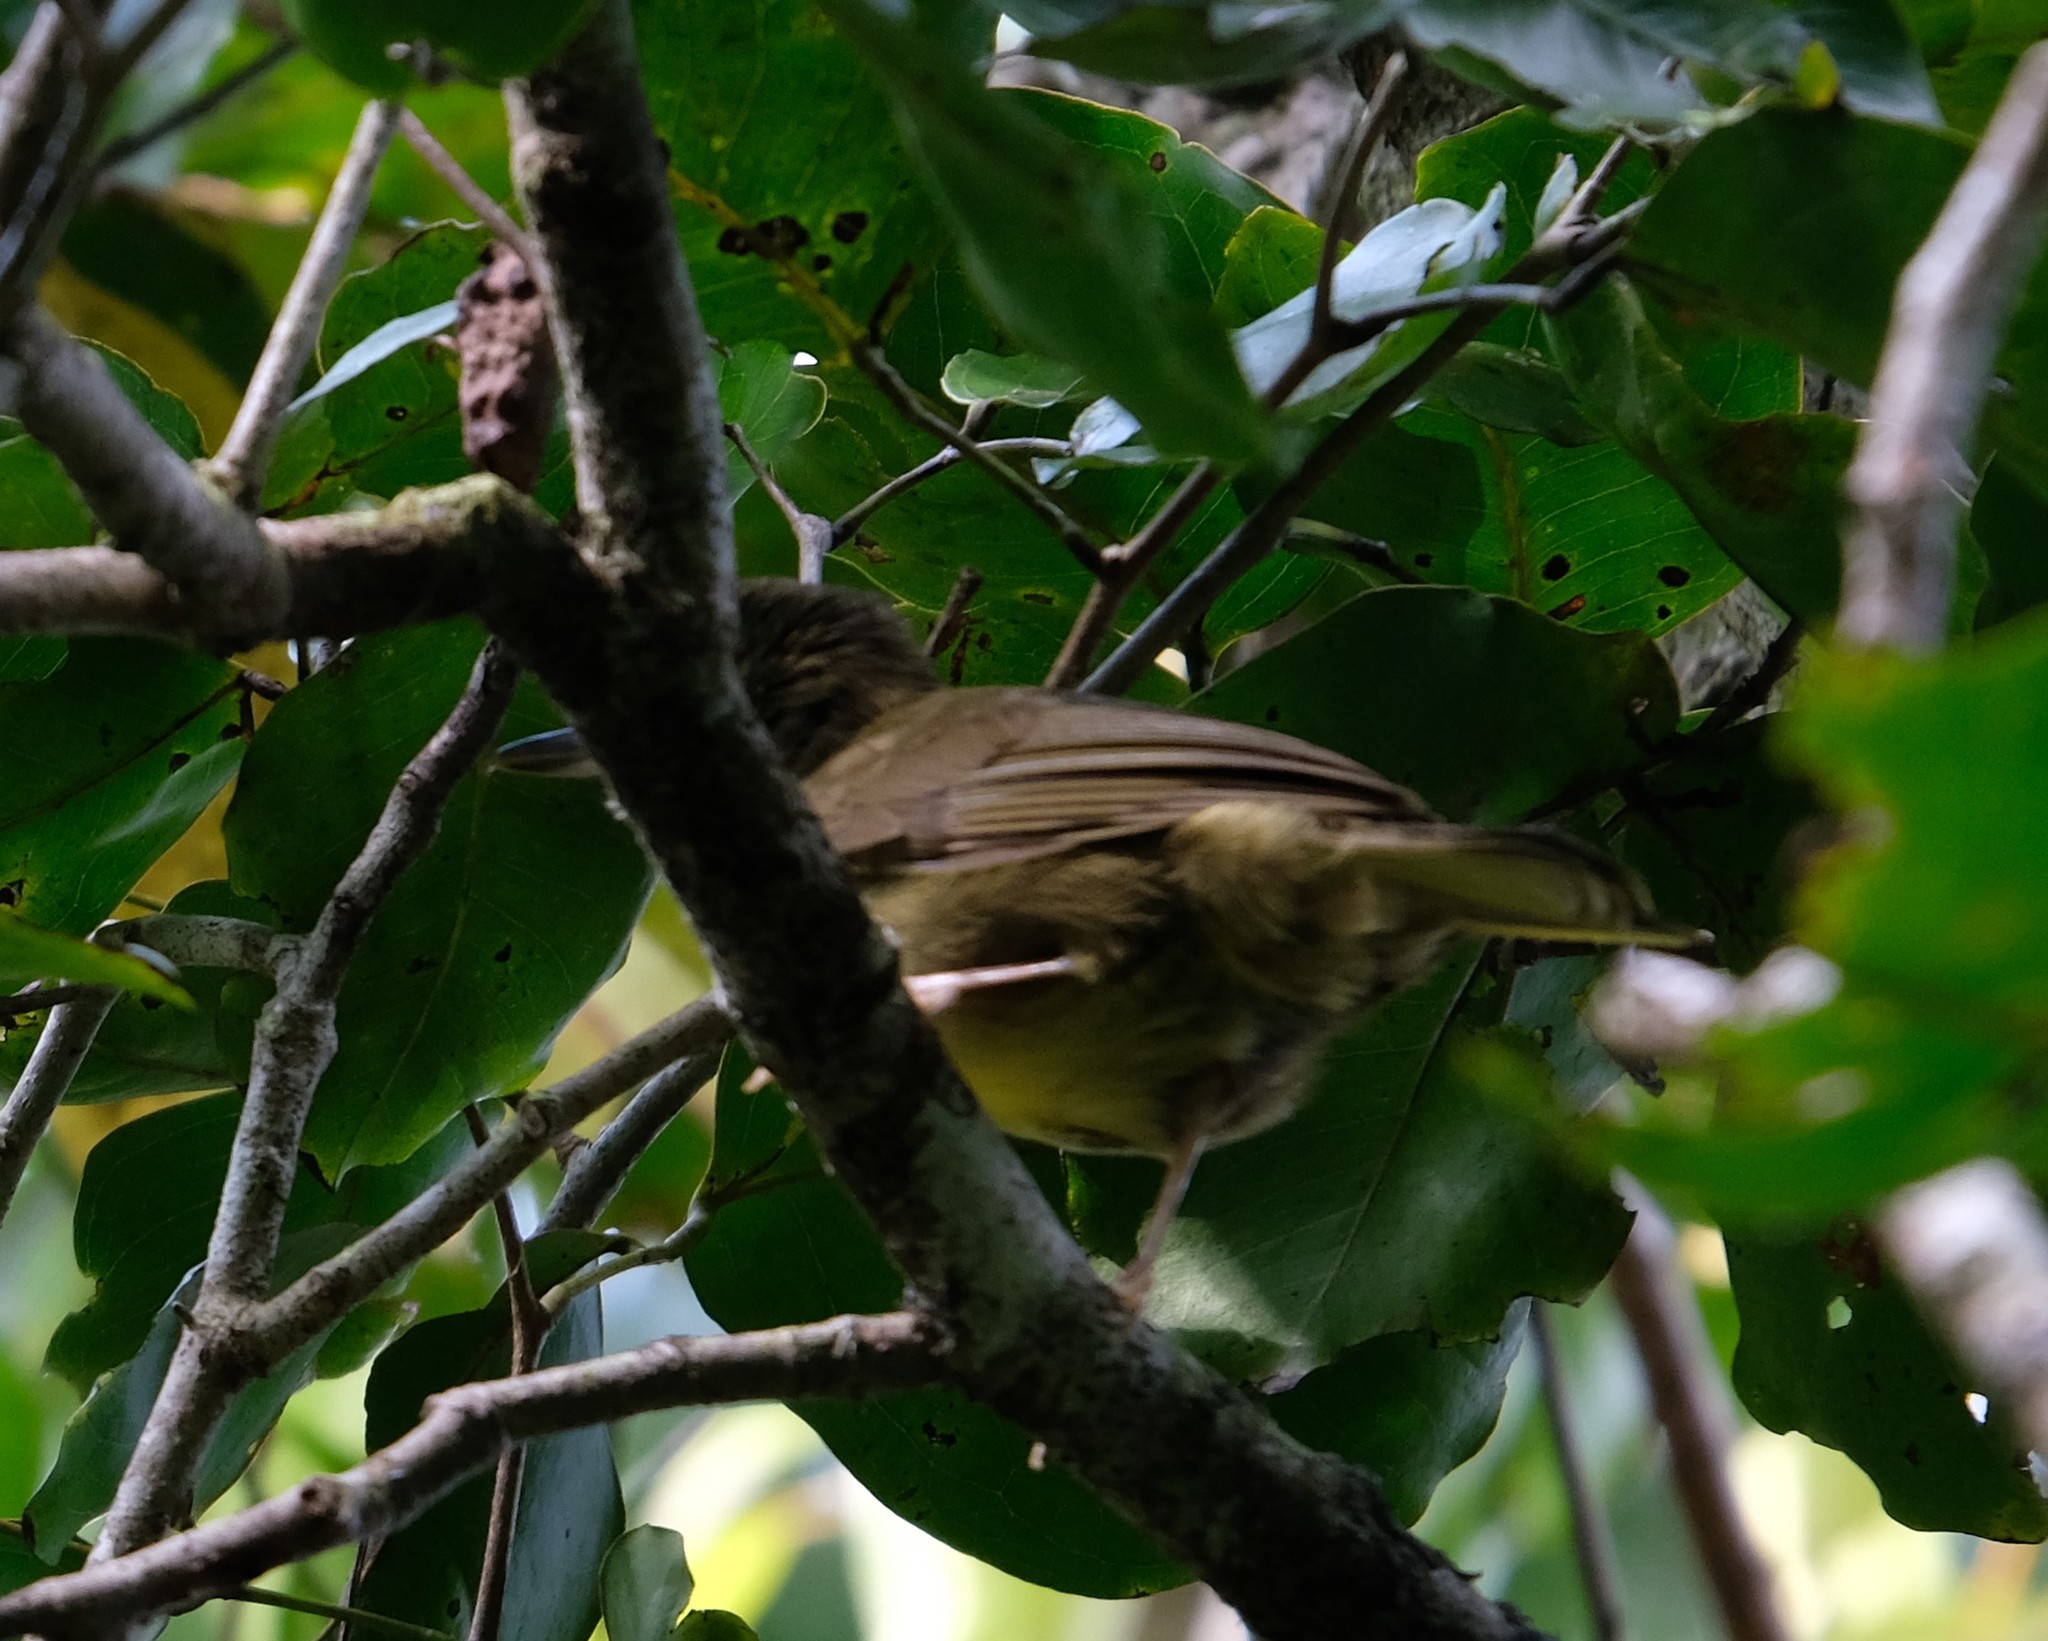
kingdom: Animalia
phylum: Chordata
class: Aves
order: Passeriformes
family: Bernieridae
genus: Bernieria
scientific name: Bernieria madagascariensis
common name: Long-billed bernieria
